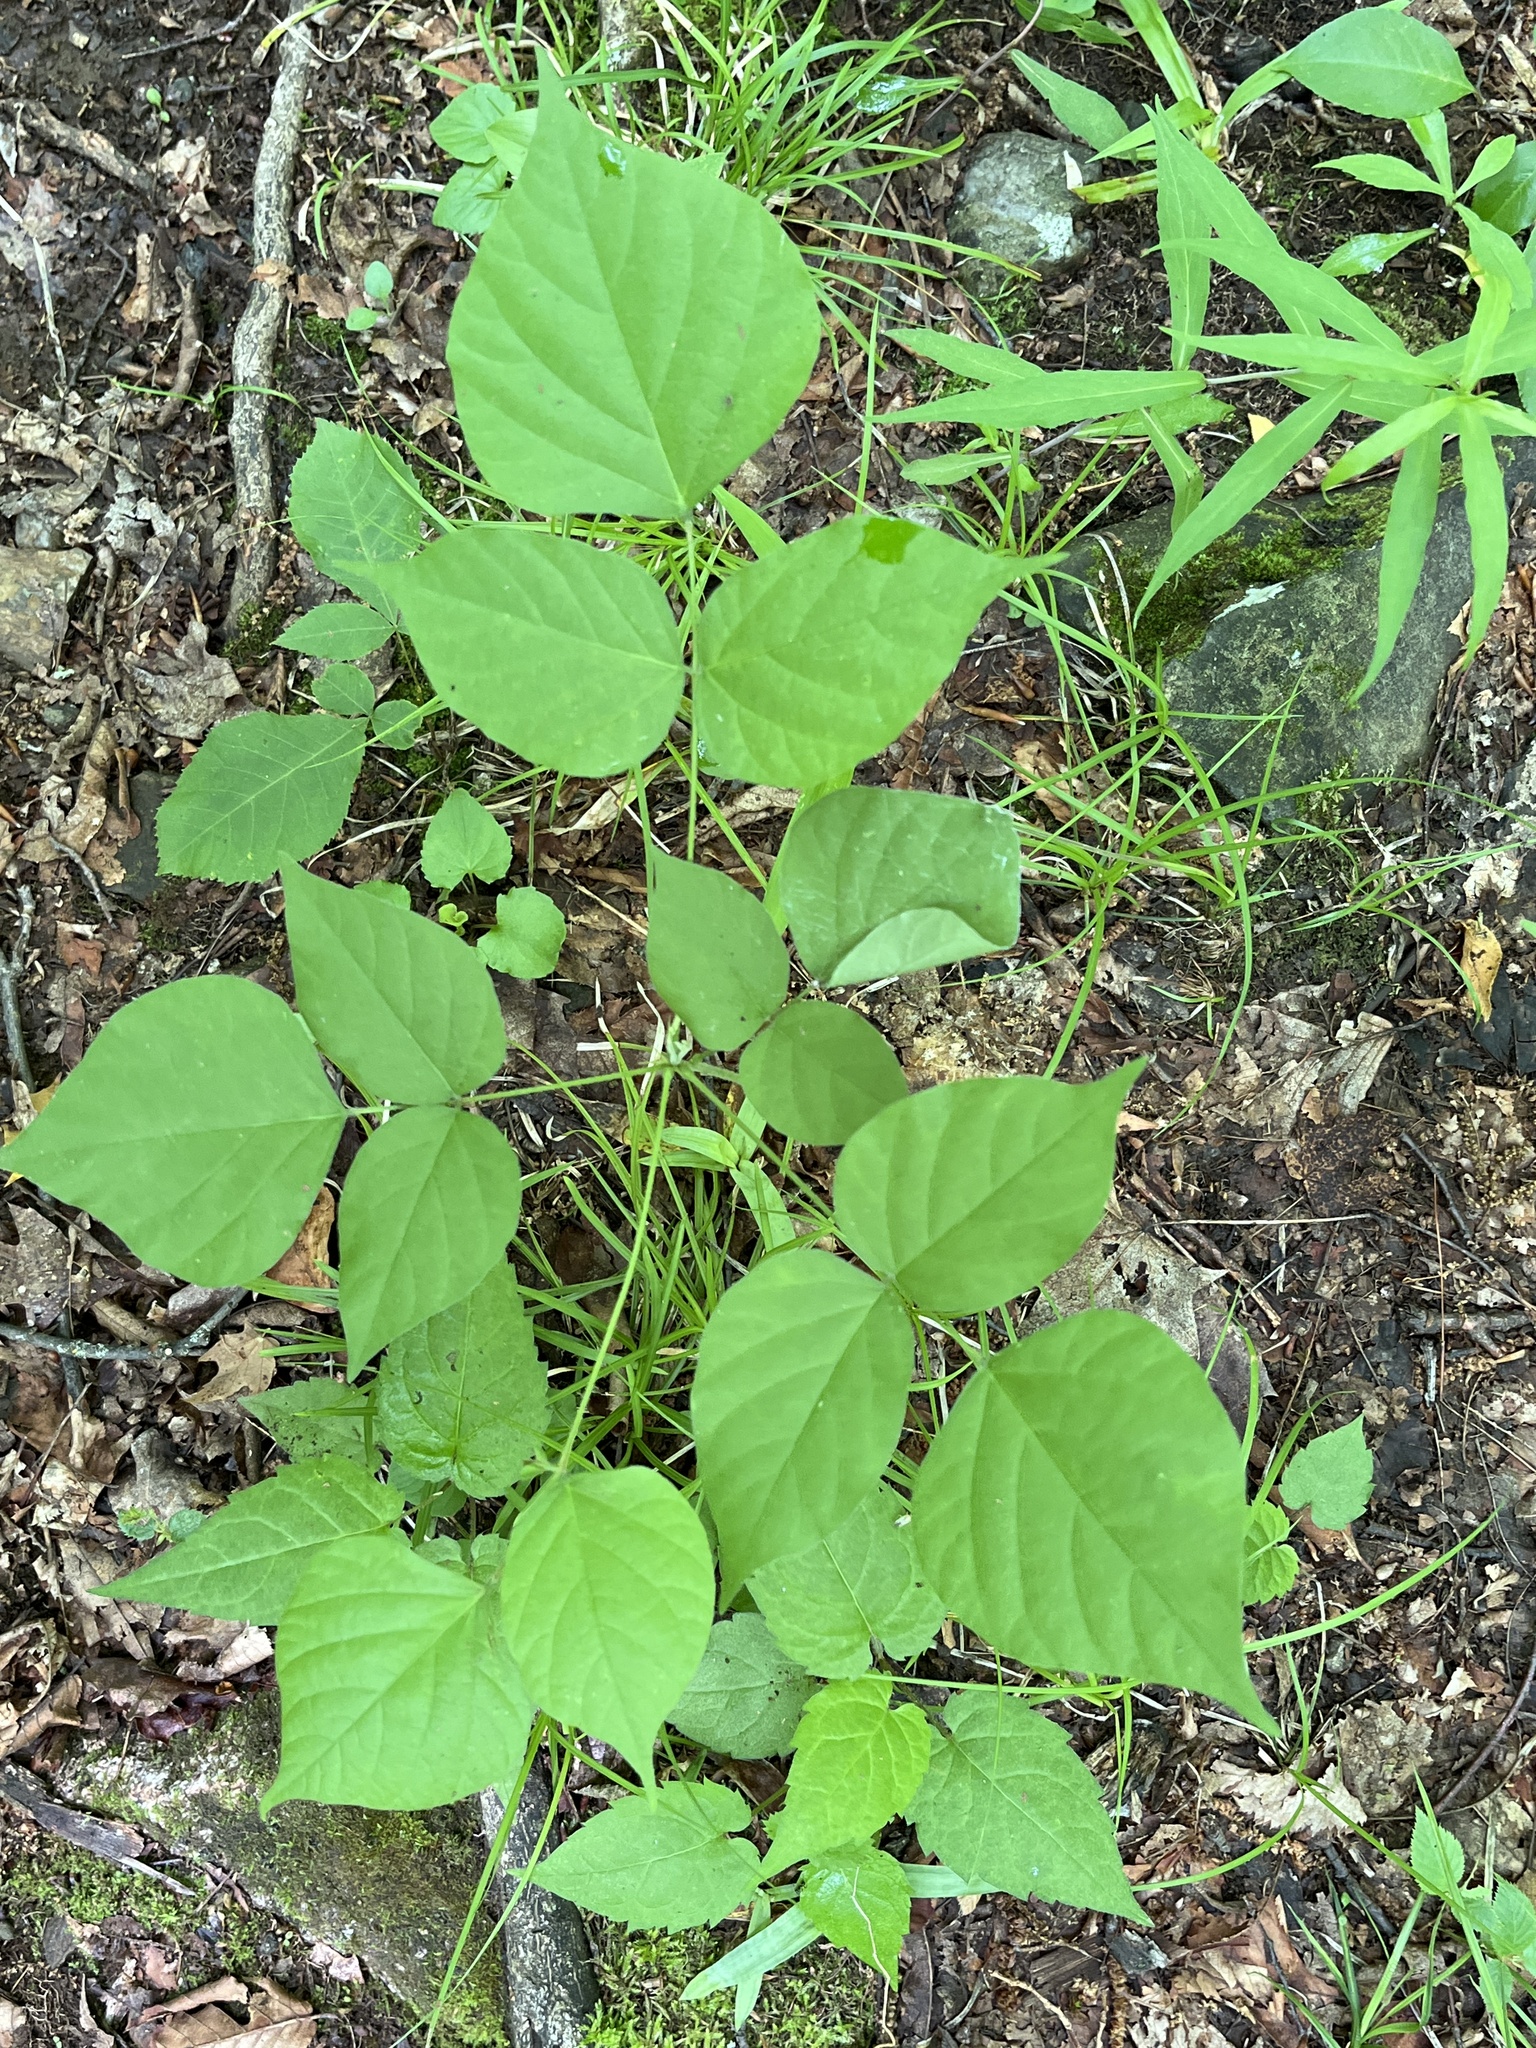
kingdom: Plantae
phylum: Tracheophyta
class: Magnoliopsida
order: Fabales
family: Fabaceae
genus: Hylodesmum
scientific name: Hylodesmum glutinosum
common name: Clustered-leaved tick-trefoil
